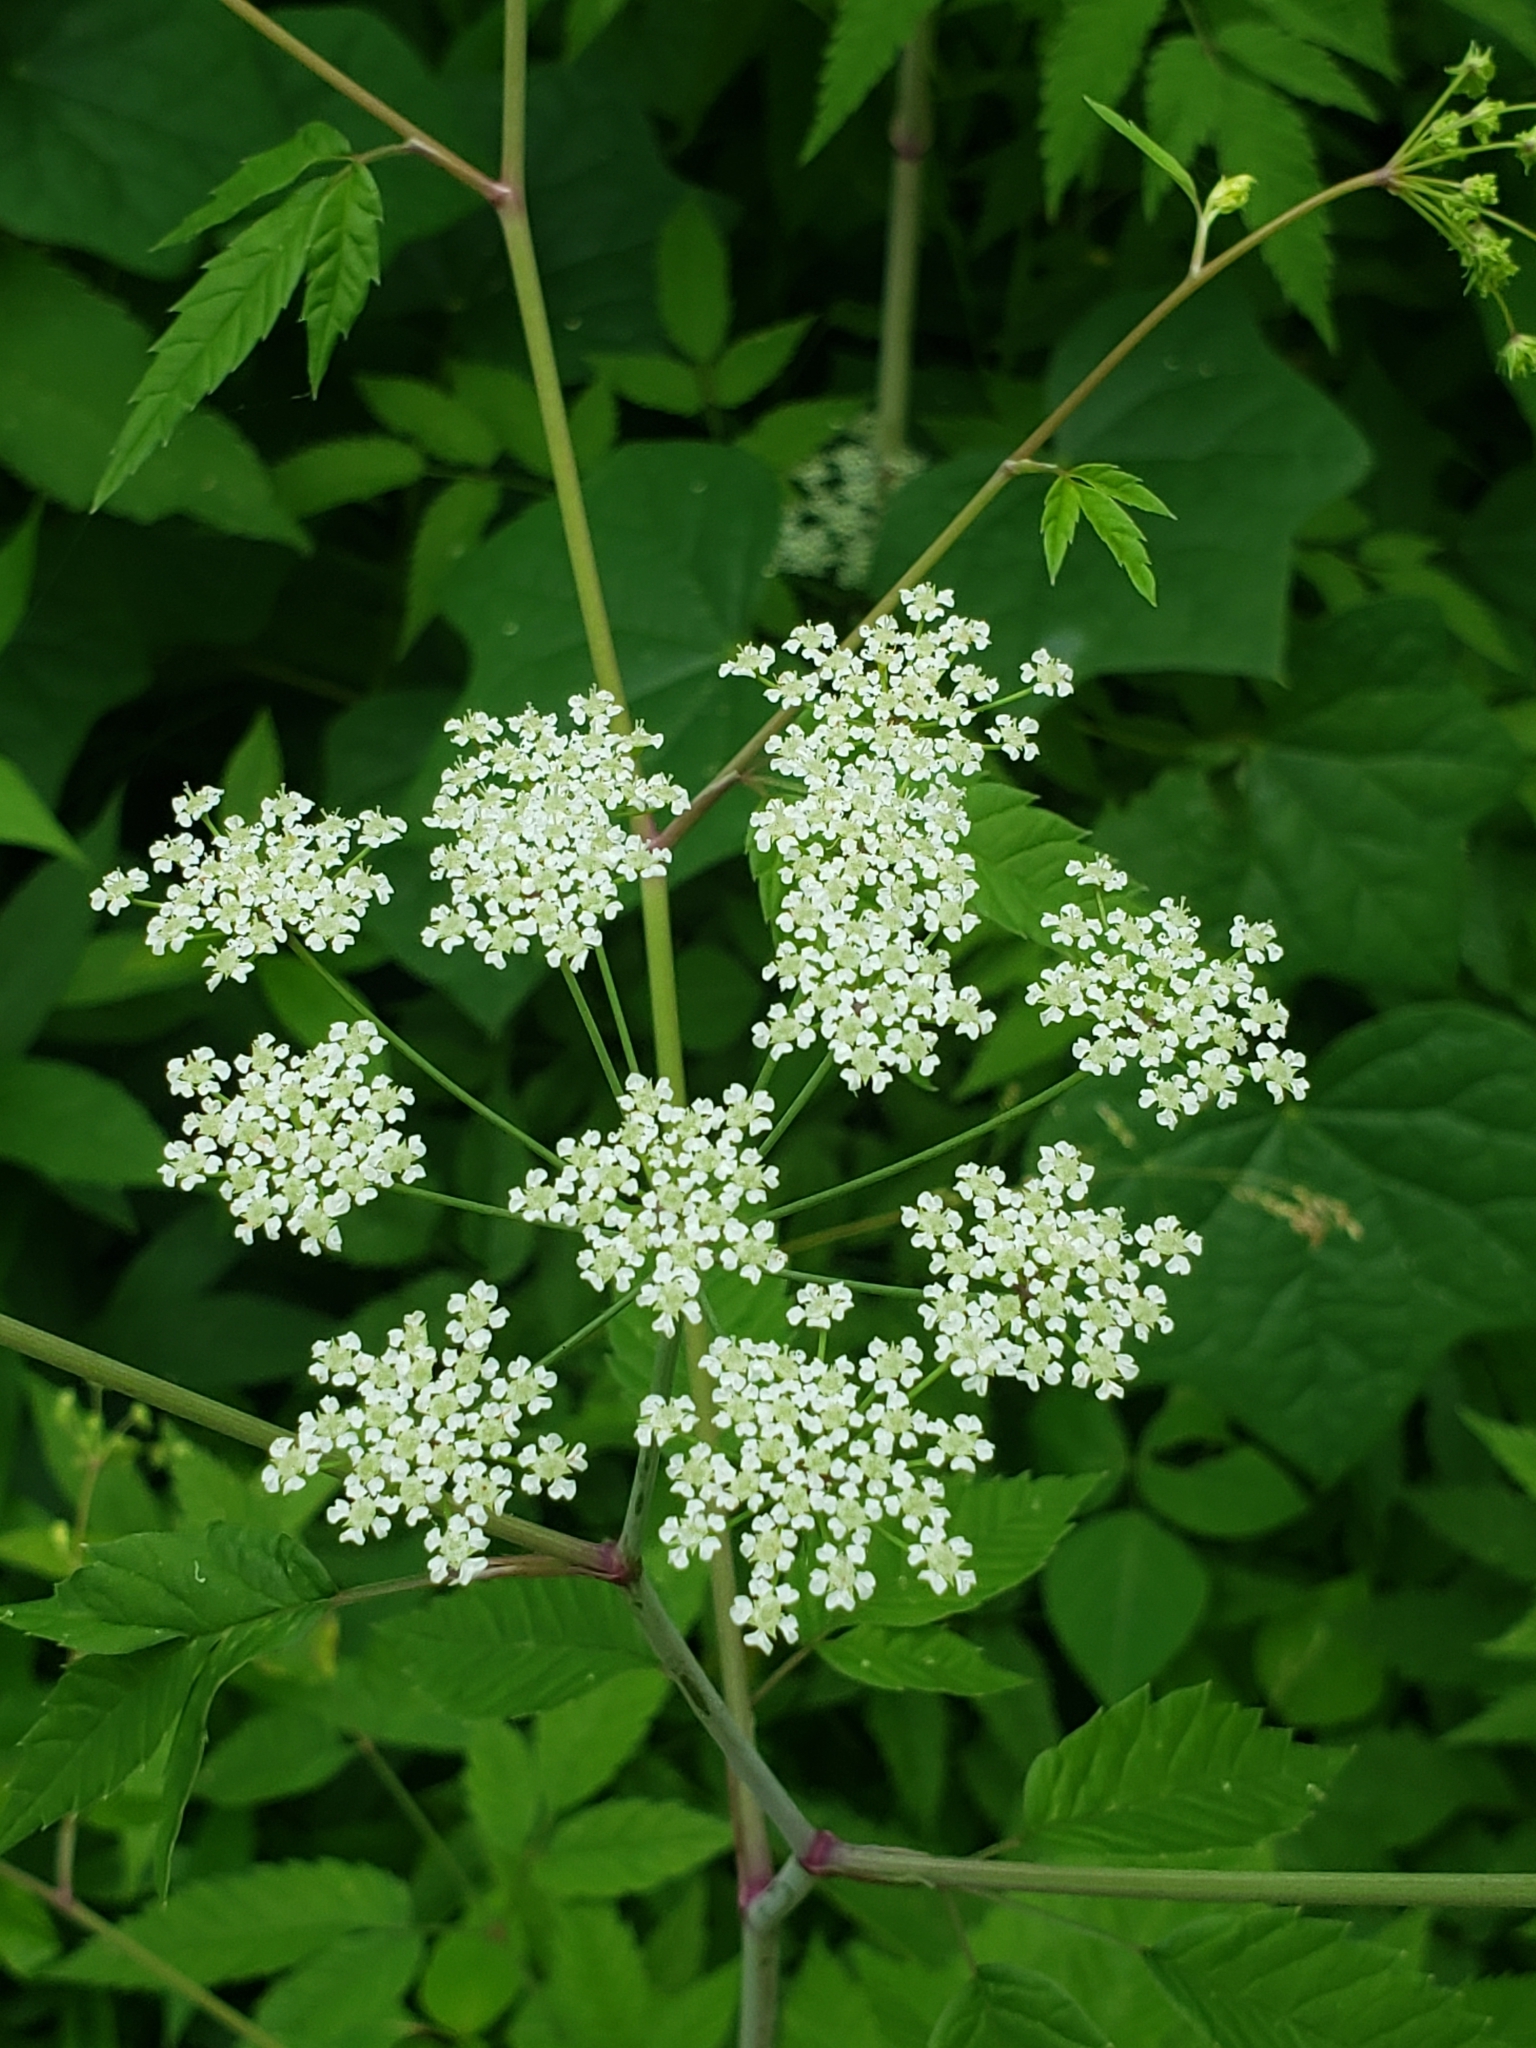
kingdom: Plantae
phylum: Tracheophyta
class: Magnoliopsida
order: Apiales
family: Apiaceae
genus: Cicuta
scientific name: Cicuta maculata
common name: Spotted cowbane
